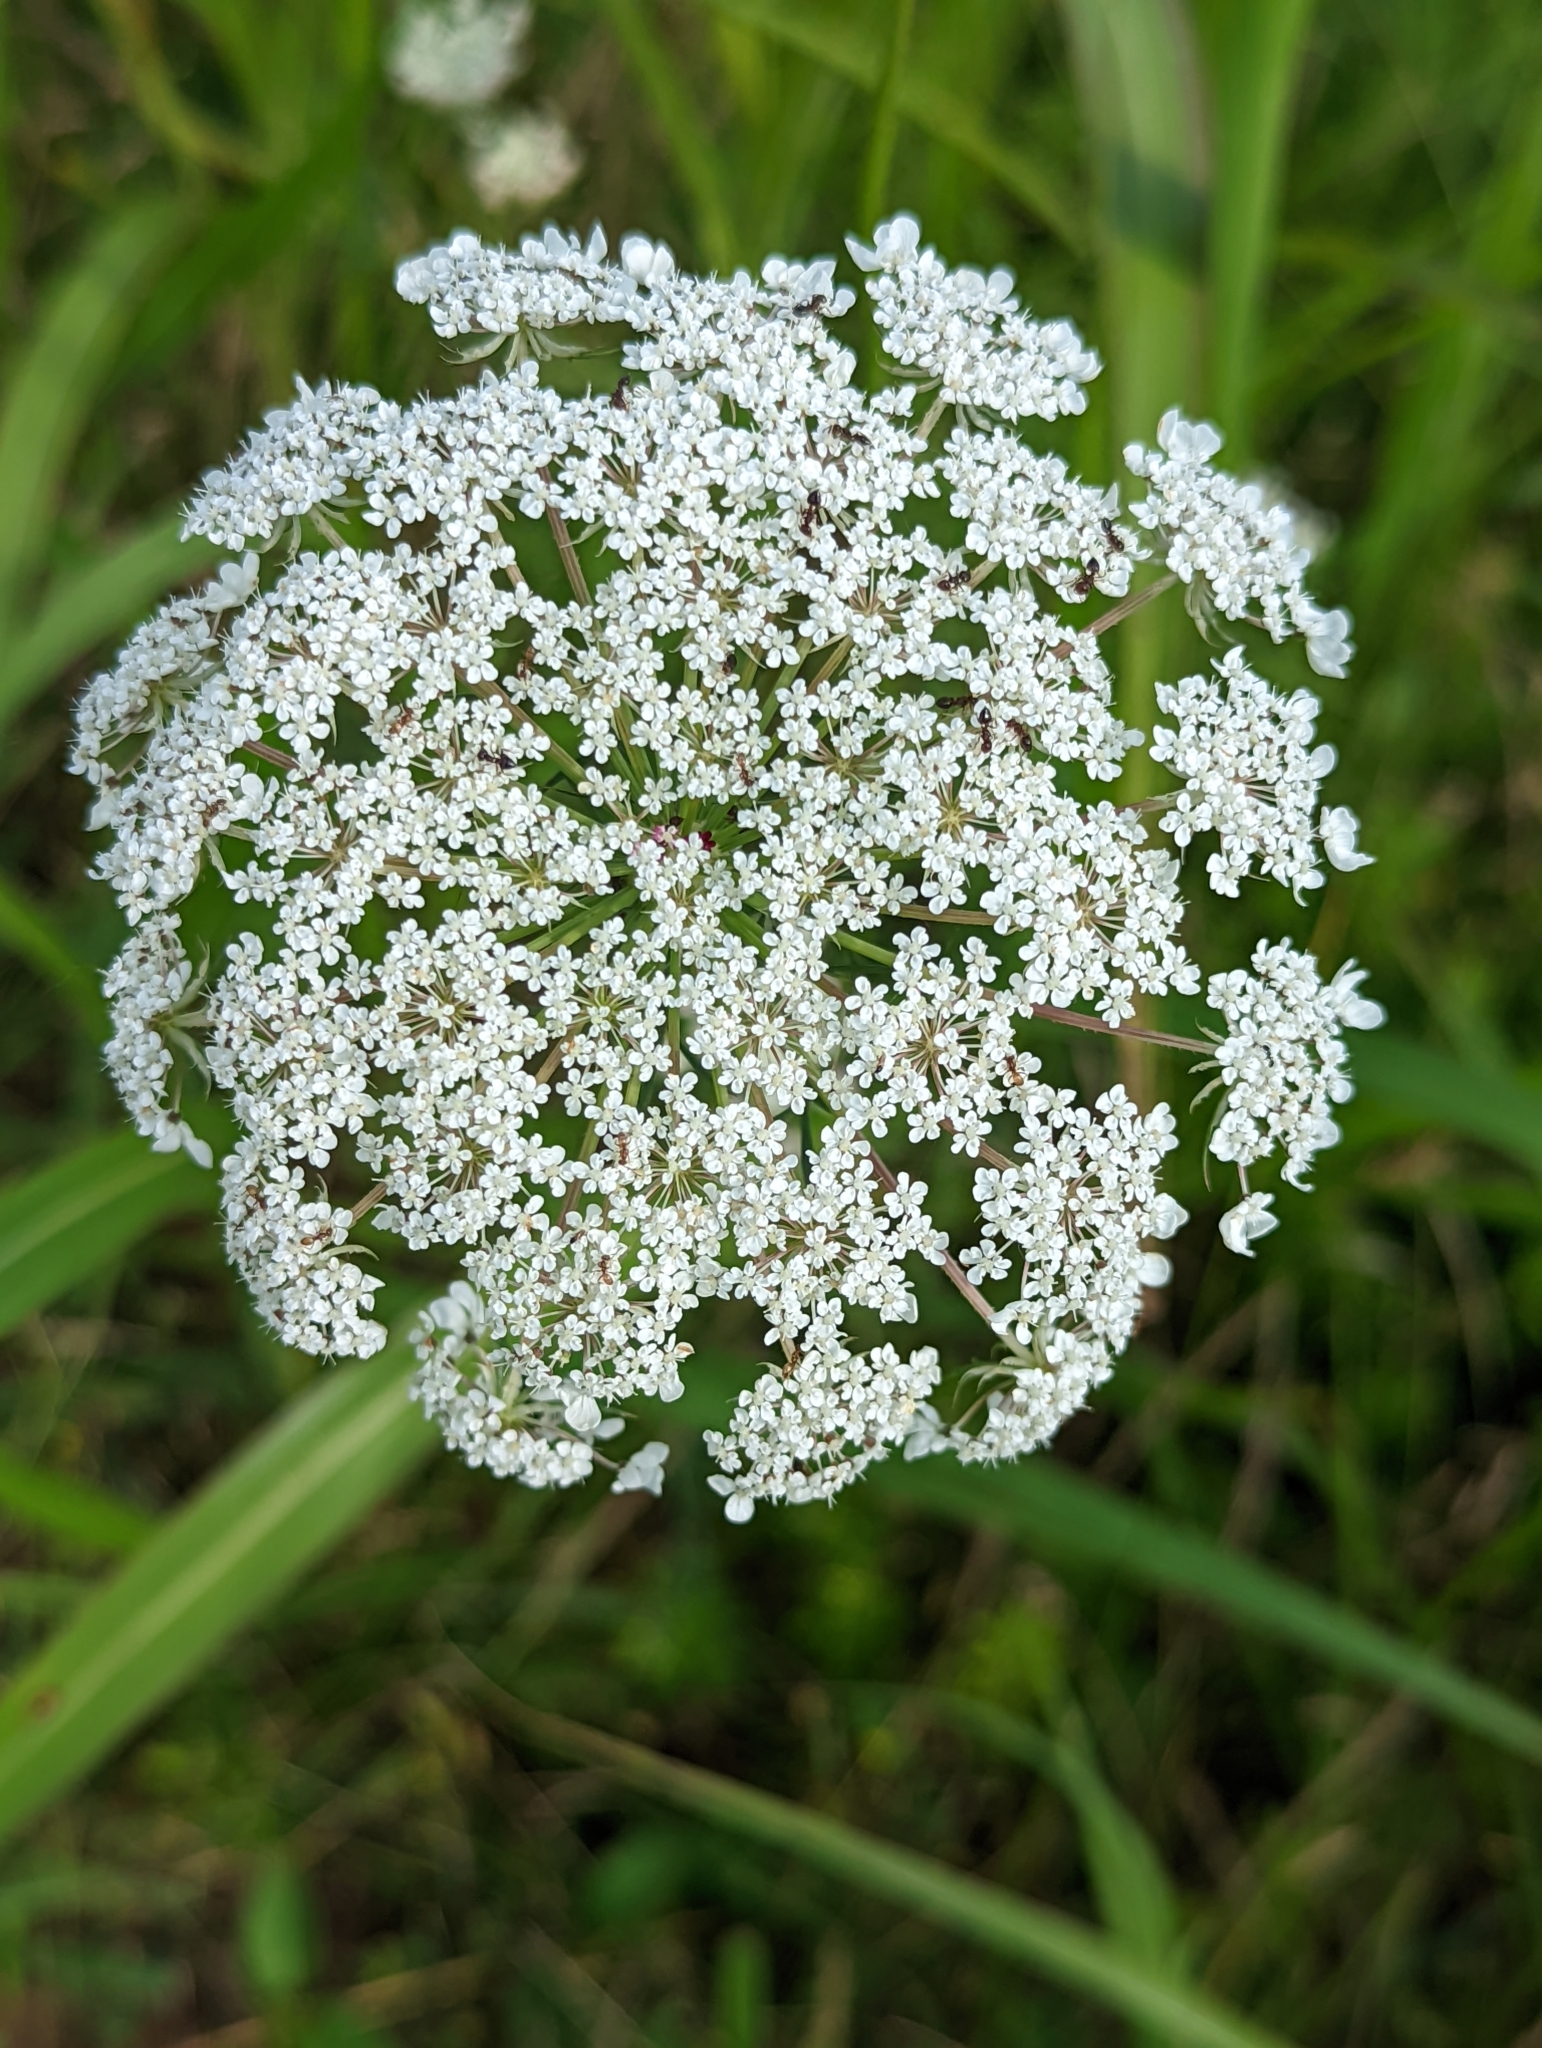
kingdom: Plantae
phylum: Tracheophyta
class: Magnoliopsida
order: Apiales
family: Apiaceae
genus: Daucus
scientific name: Daucus carota
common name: Wild carrot
